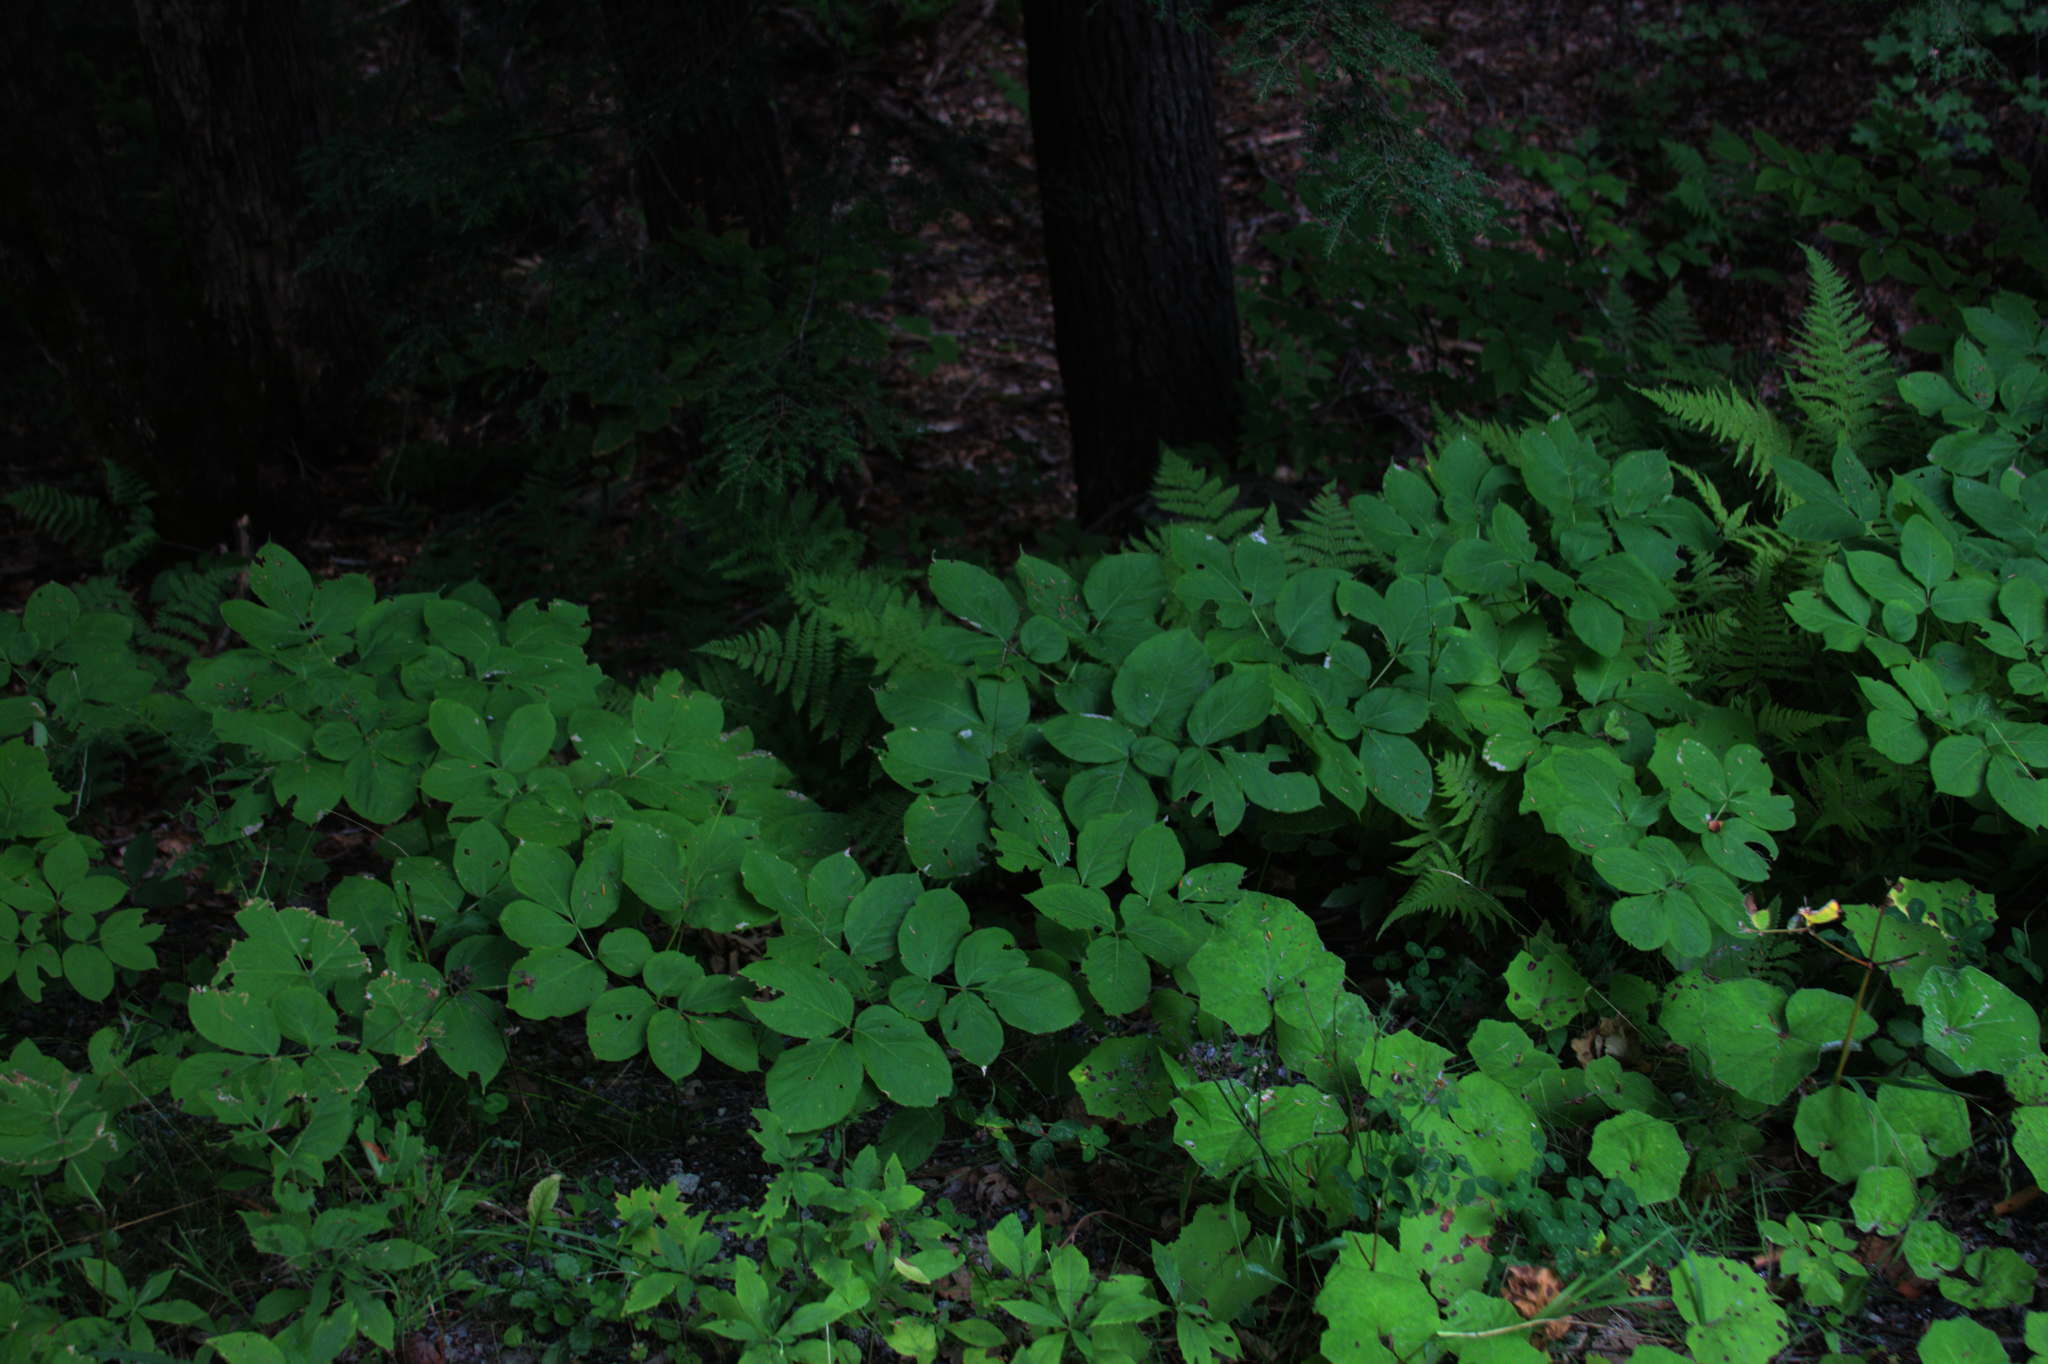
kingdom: Plantae
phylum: Tracheophyta
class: Magnoliopsida
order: Apiales
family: Araliaceae
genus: Aralia
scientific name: Aralia nudicaulis
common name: Wild sarsaparilla
